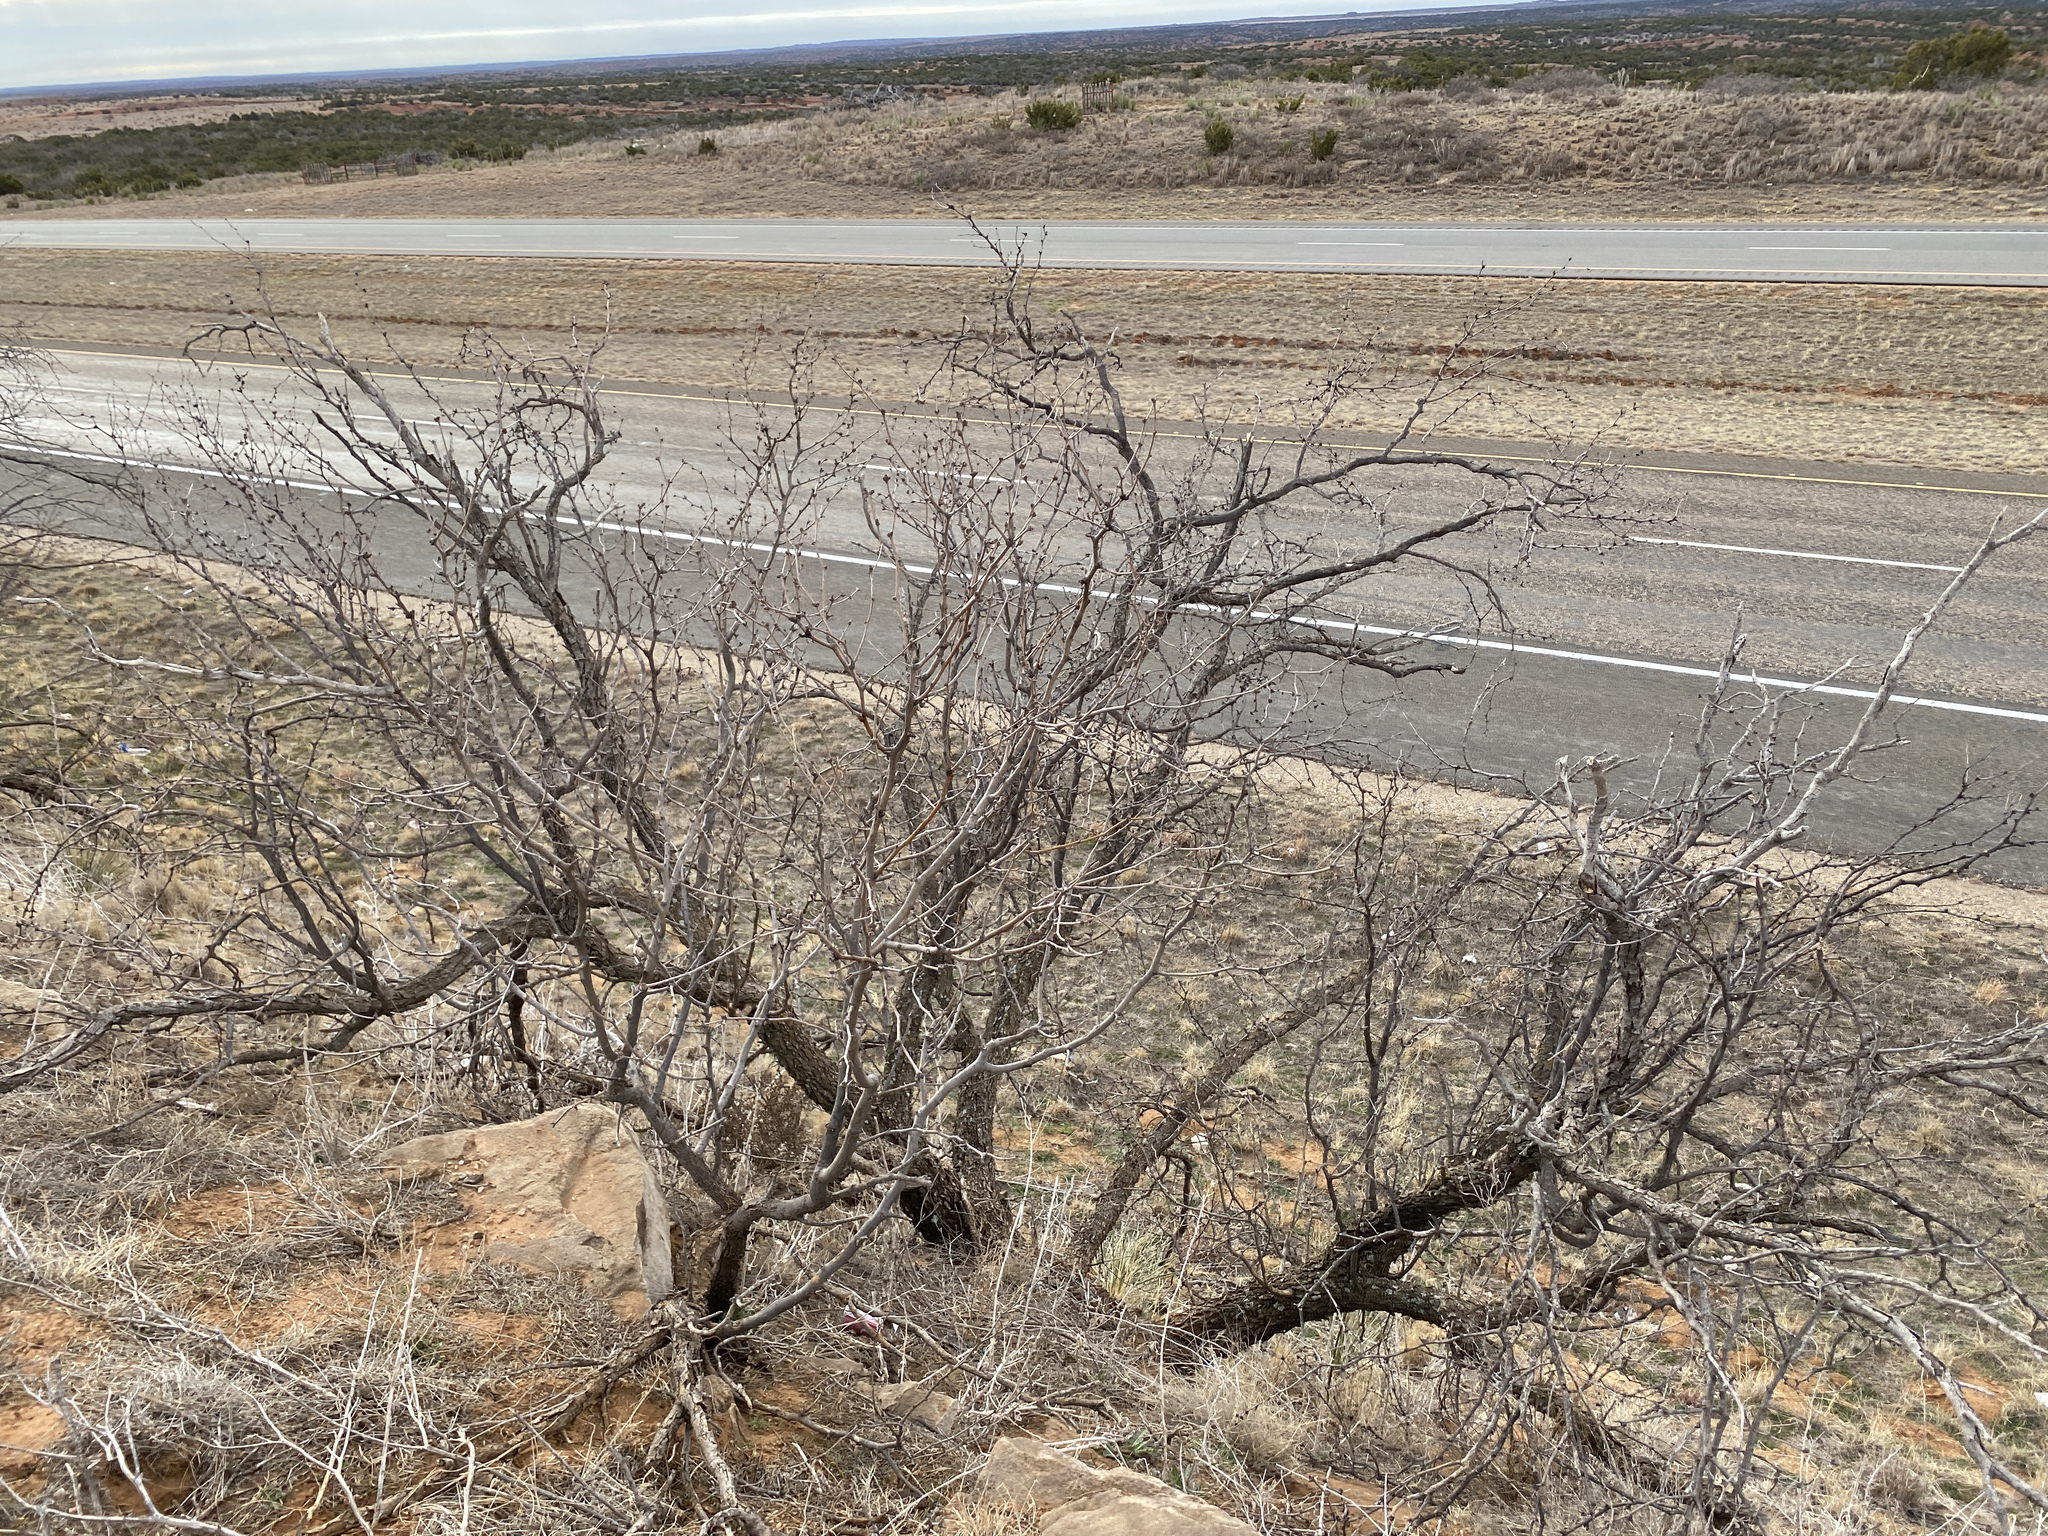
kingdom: Plantae
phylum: Tracheophyta
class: Magnoliopsida
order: Fabales
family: Fabaceae
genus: Prosopis
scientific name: Prosopis glandulosa
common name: Honey mesquite
